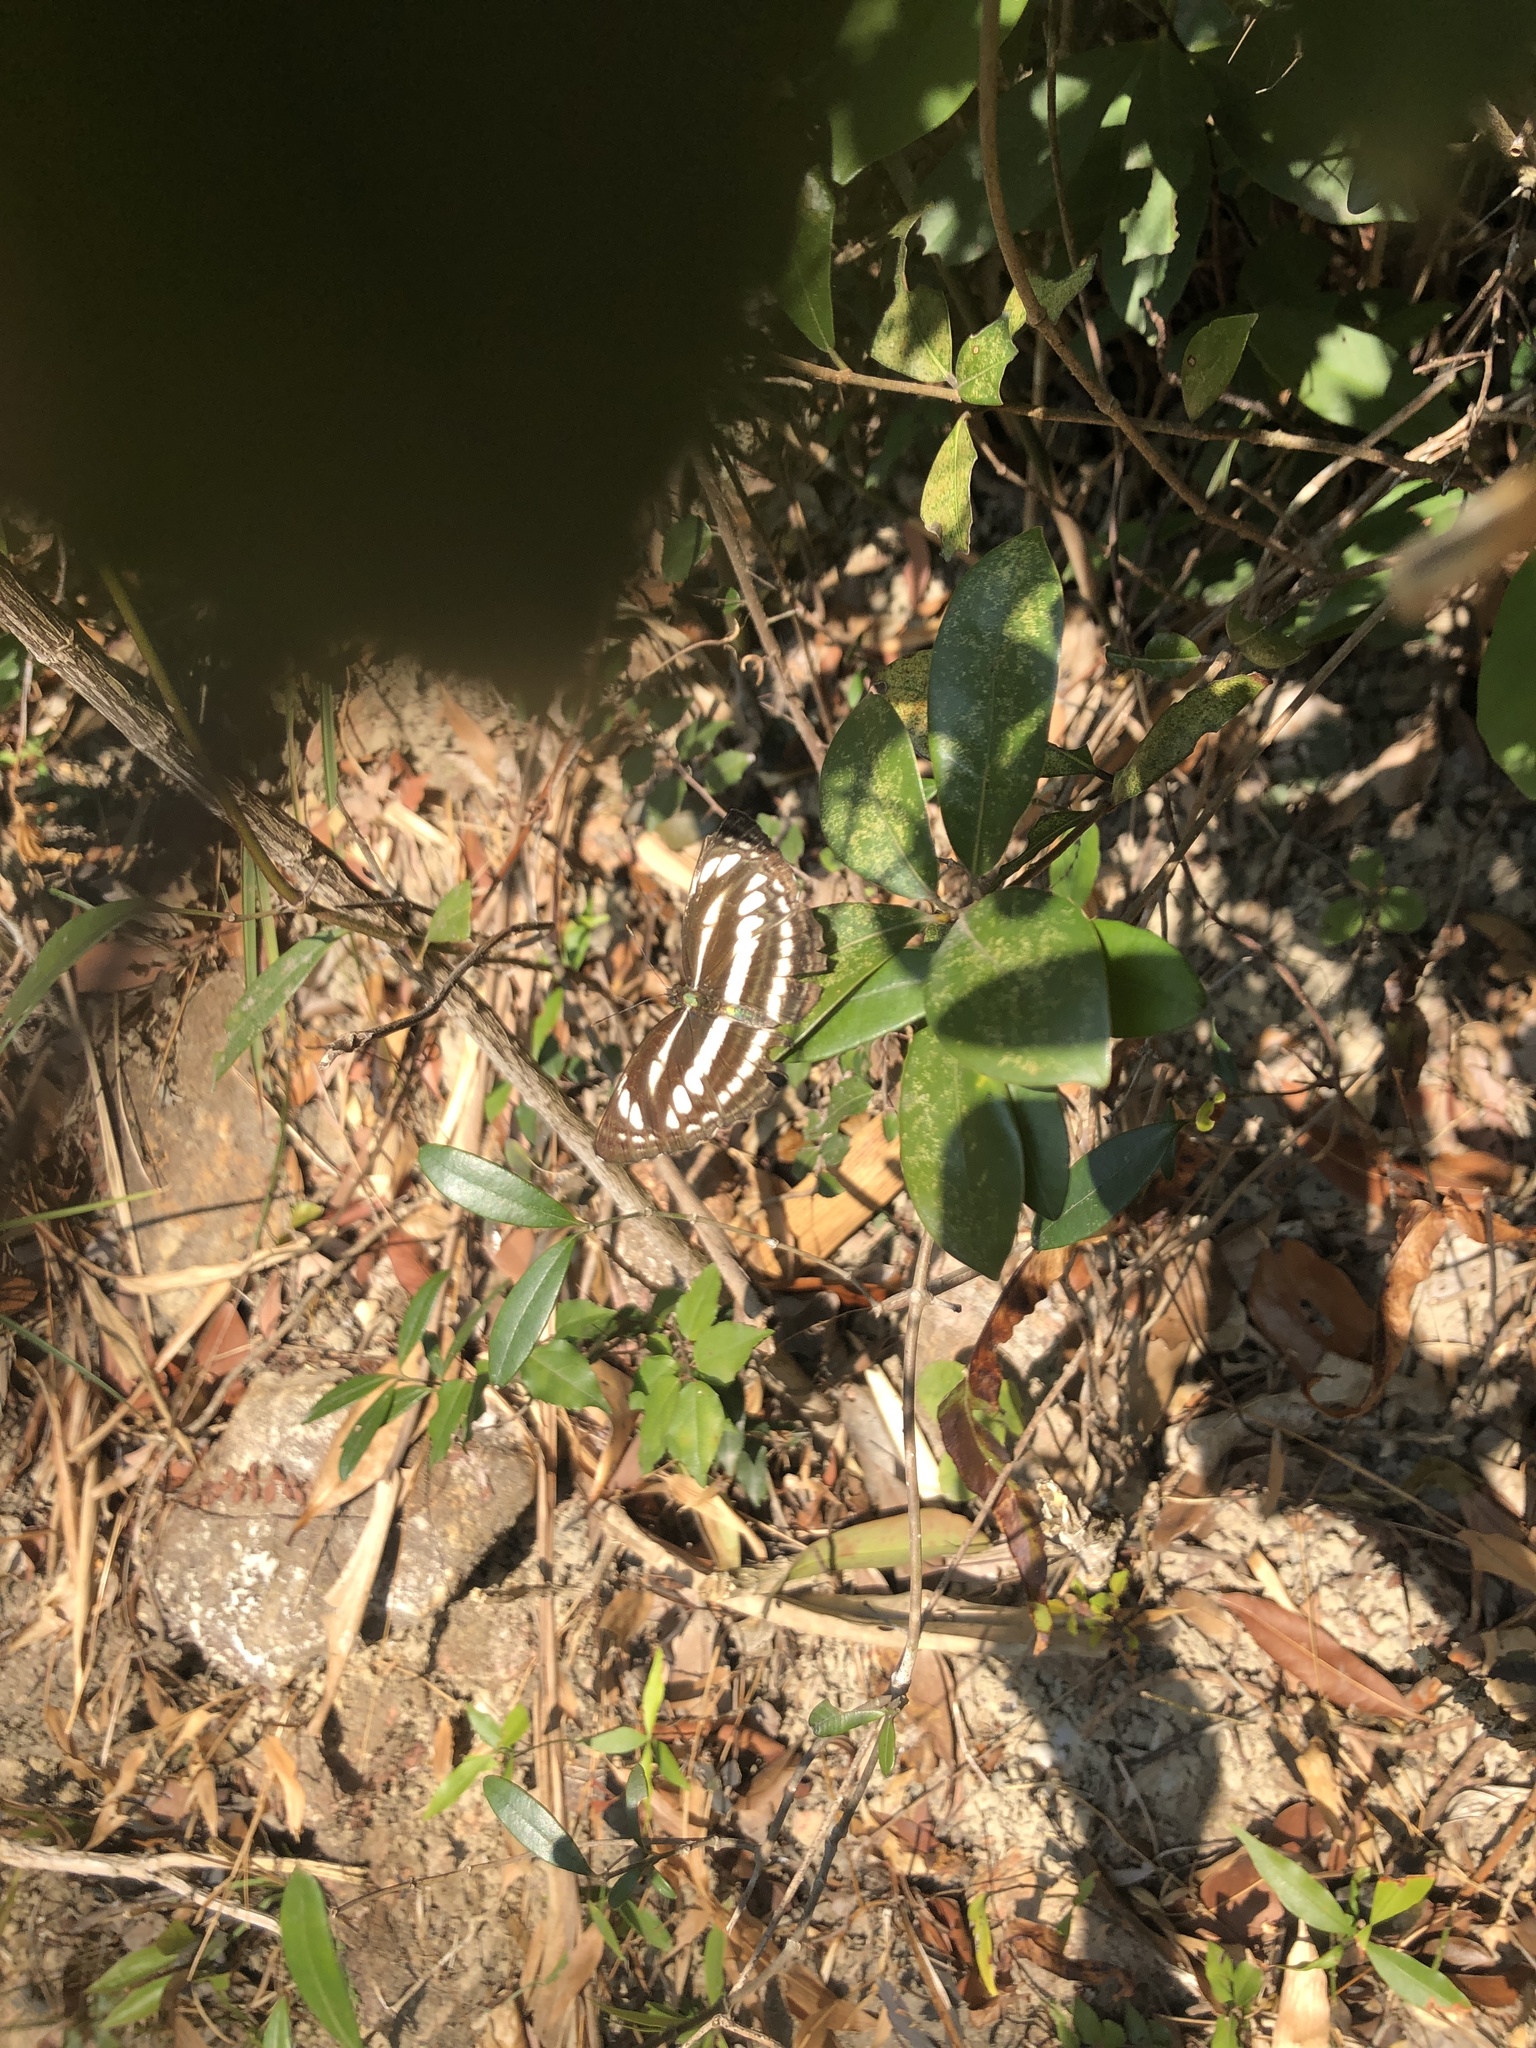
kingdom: Animalia
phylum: Arthropoda
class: Insecta
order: Lepidoptera
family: Nymphalidae
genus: Neptis
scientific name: Neptis clinia
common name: Southern sullied sailer
